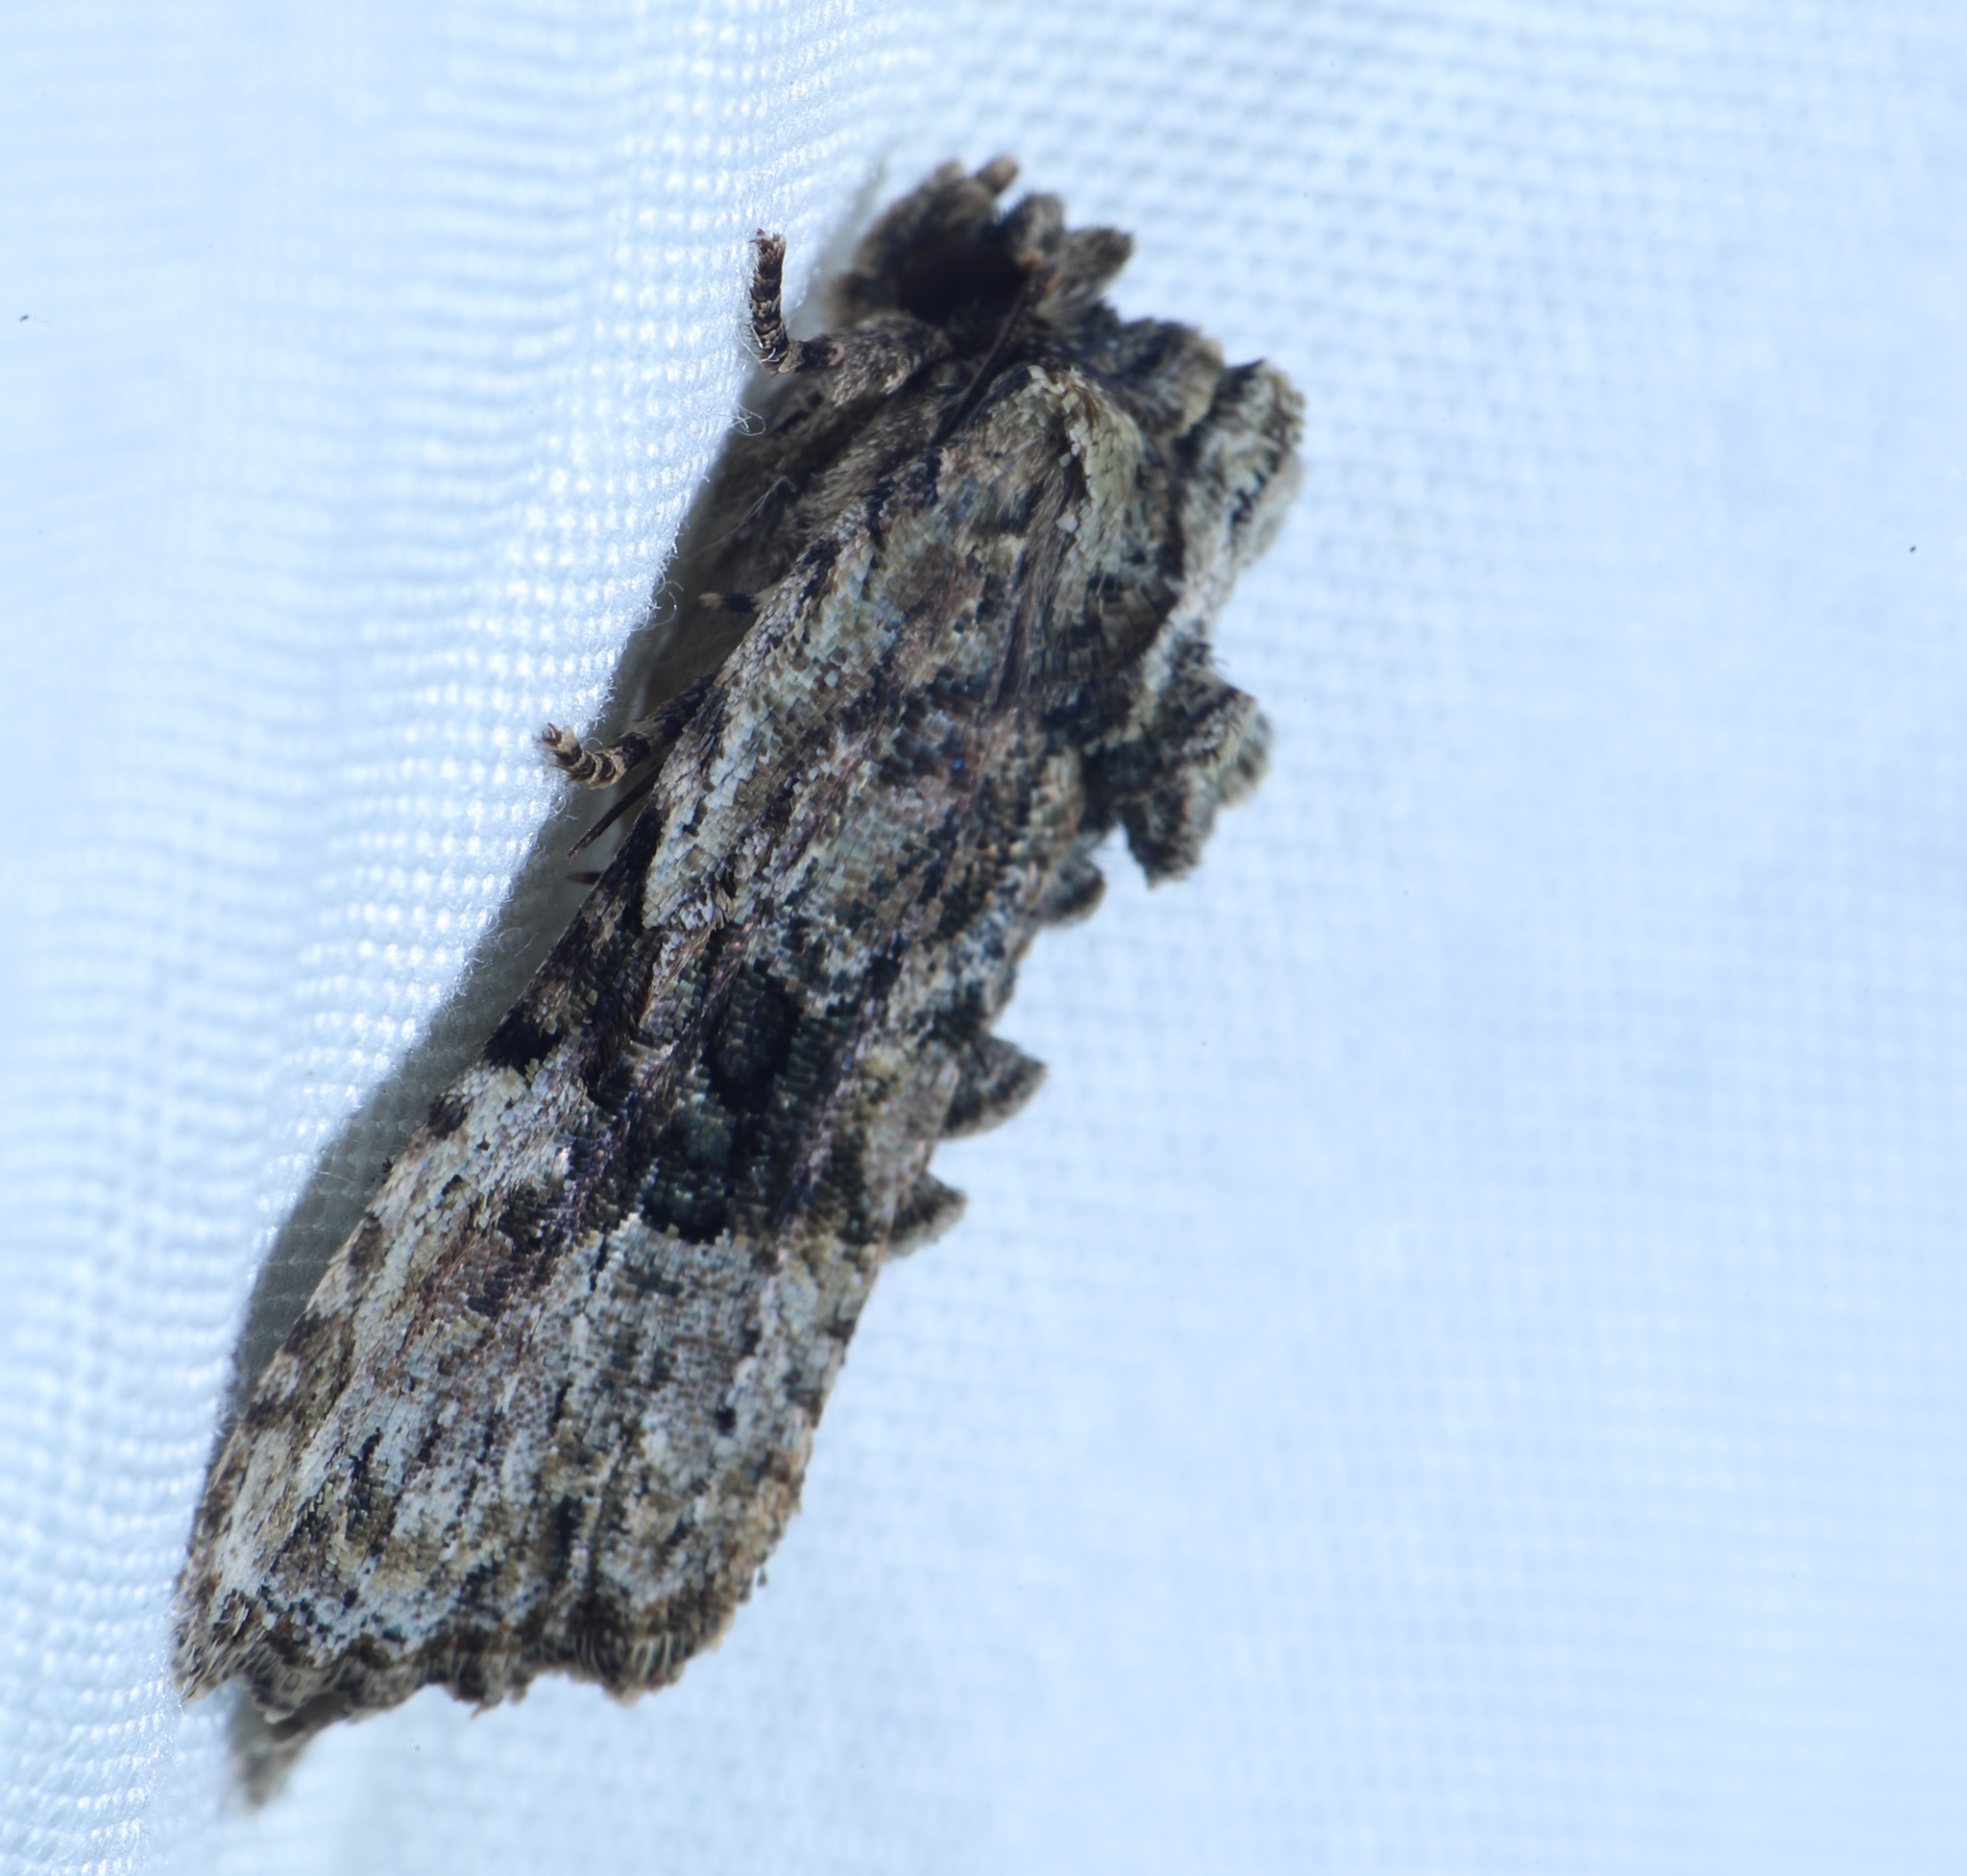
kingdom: Animalia
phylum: Arthropoda
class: Insecta
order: Lepidoptera
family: Noctuidae
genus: Oligia
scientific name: Oligia modica
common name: Black-banded brocade
